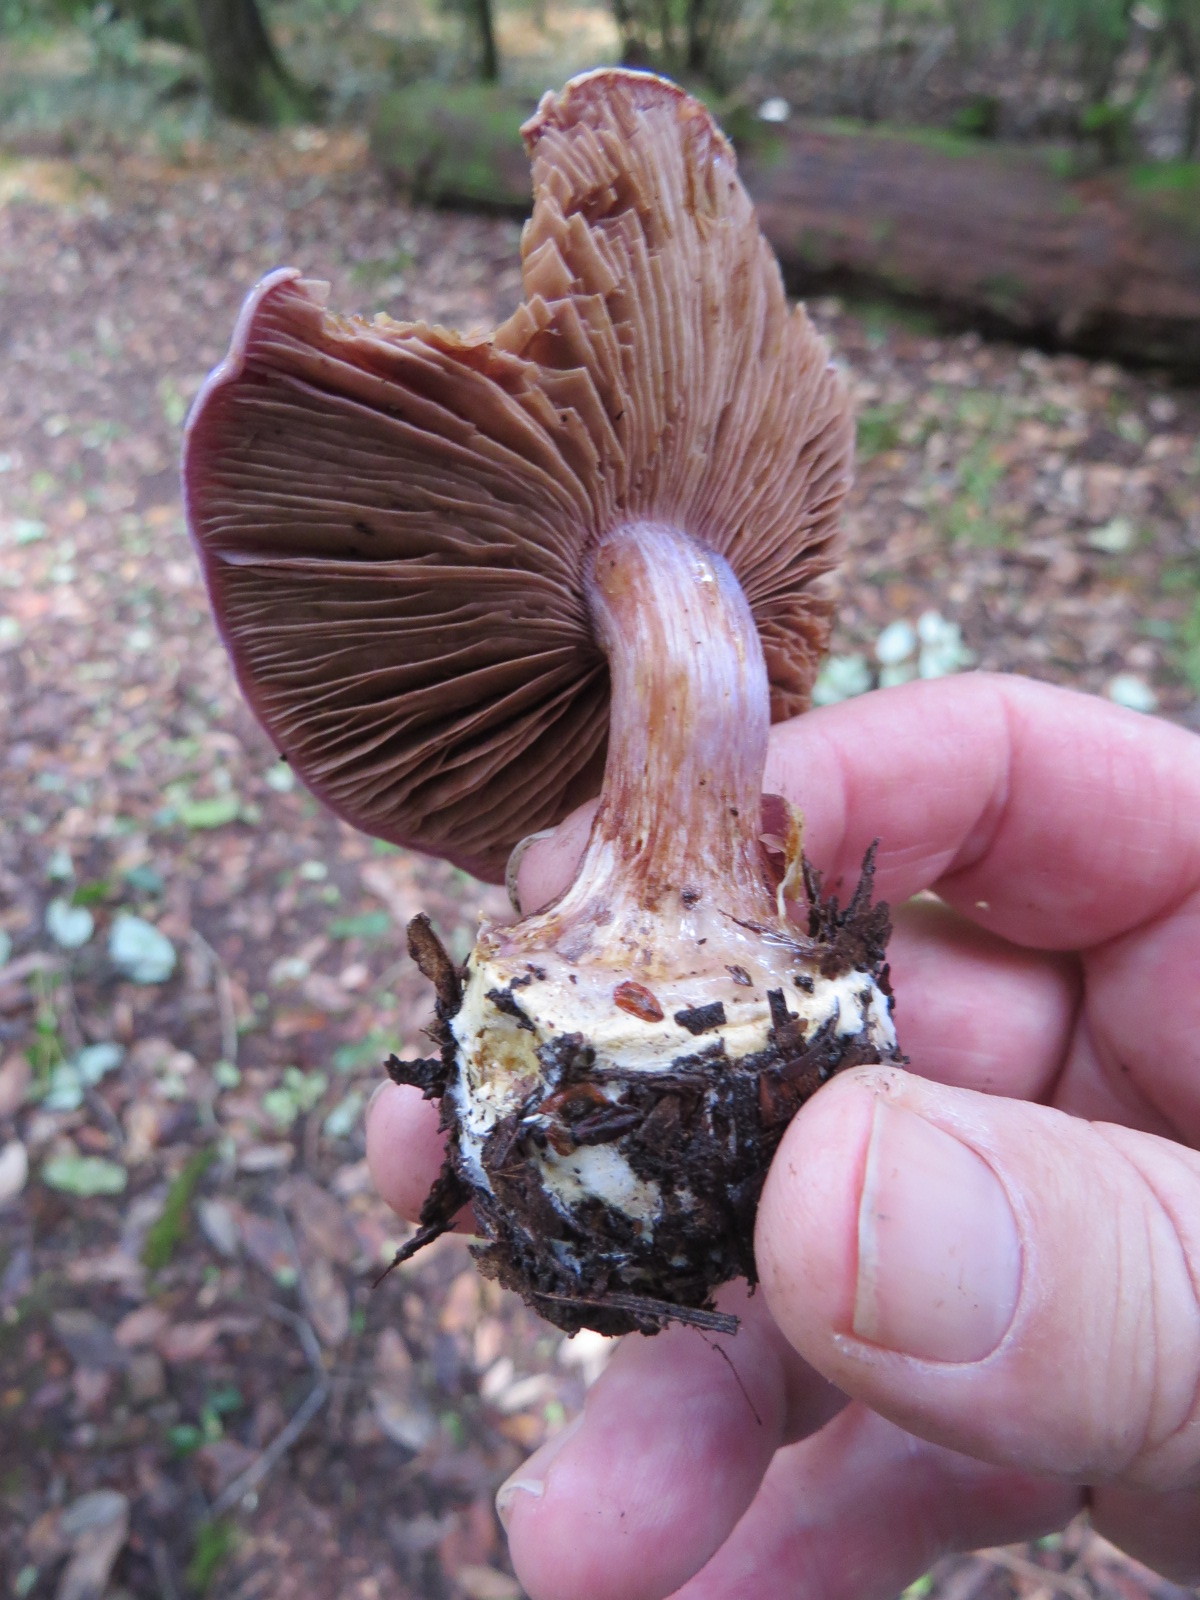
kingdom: Fungi
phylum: Basidiomycota
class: Agaricomycetes
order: Agaricales
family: Cortinariaceae
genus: Calonarius
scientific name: Calonarius lilaciotinctus
